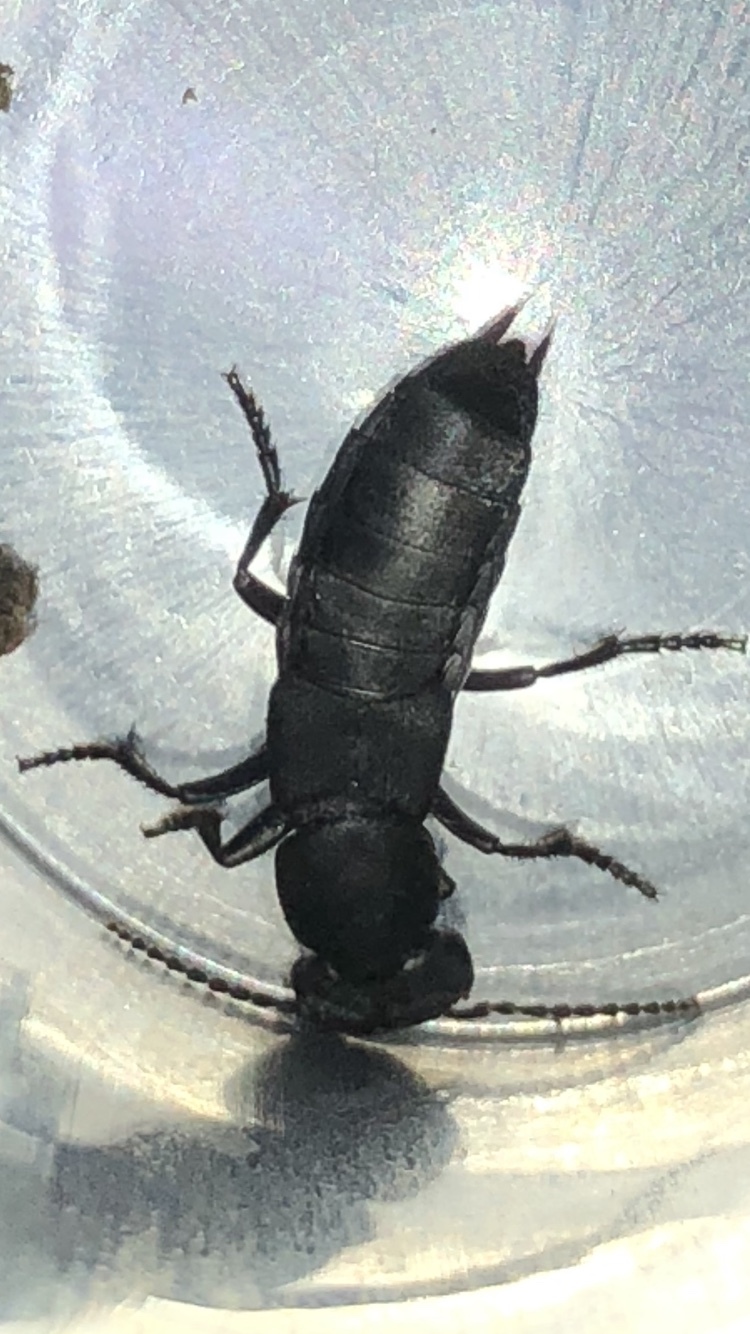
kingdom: Animalia
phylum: Arthropoda
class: Insecta
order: Coleoptera
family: Staphylinidae
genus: Ocypus
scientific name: Ocypus olens
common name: Devil's coach-horse
